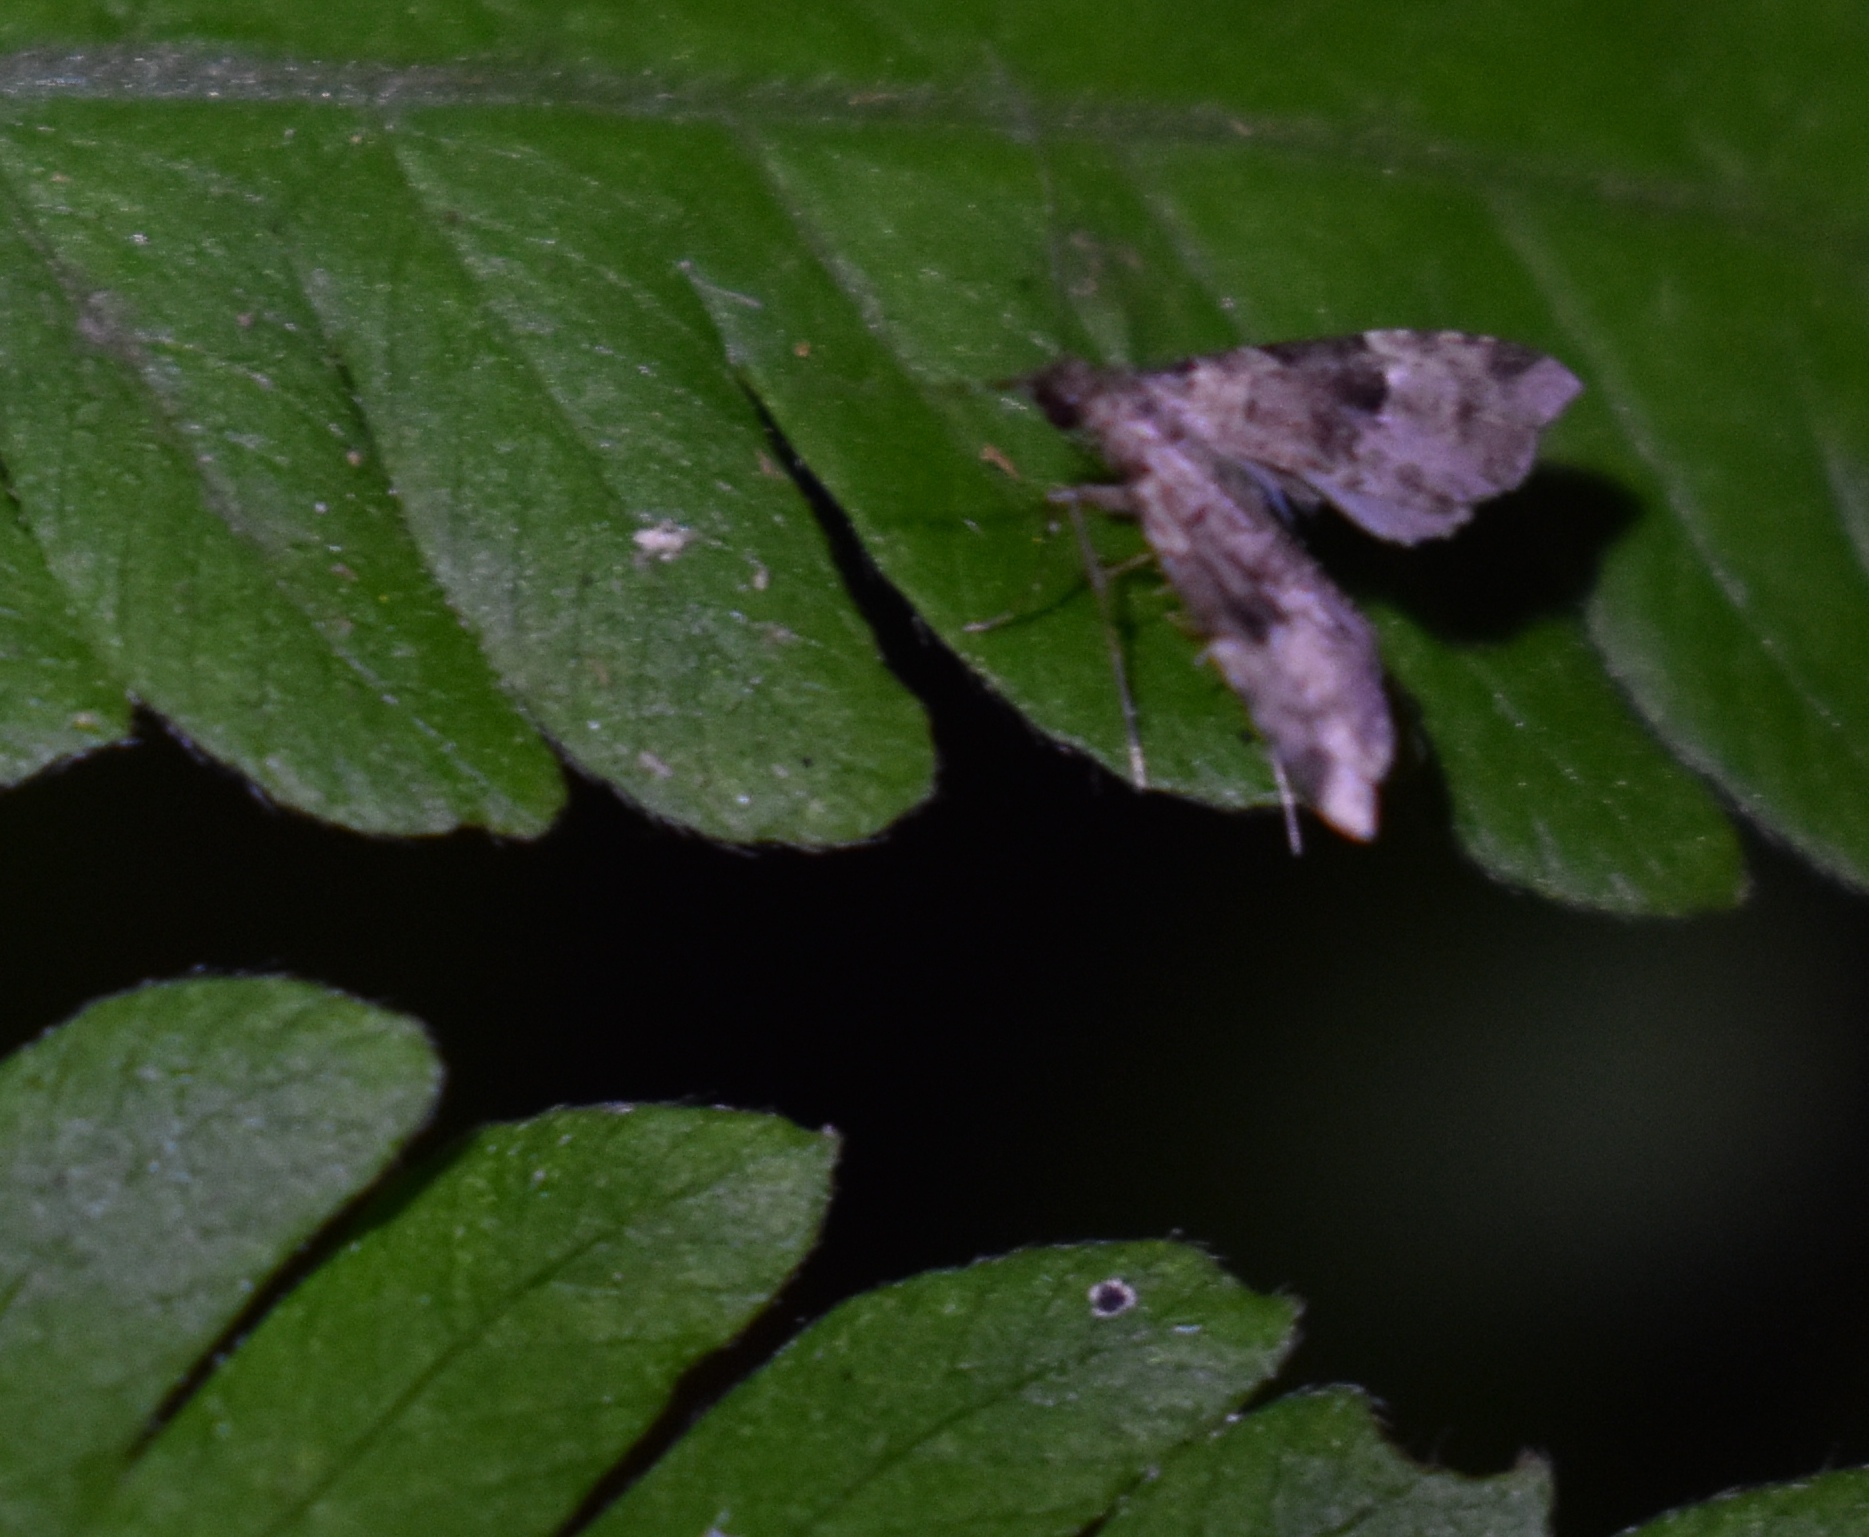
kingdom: Animalia
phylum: Arthropoda
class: Insecta
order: Lepidoptera
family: Erebidae
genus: Pseudoschrankia
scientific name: Pseudoschrankia brevipalpis
